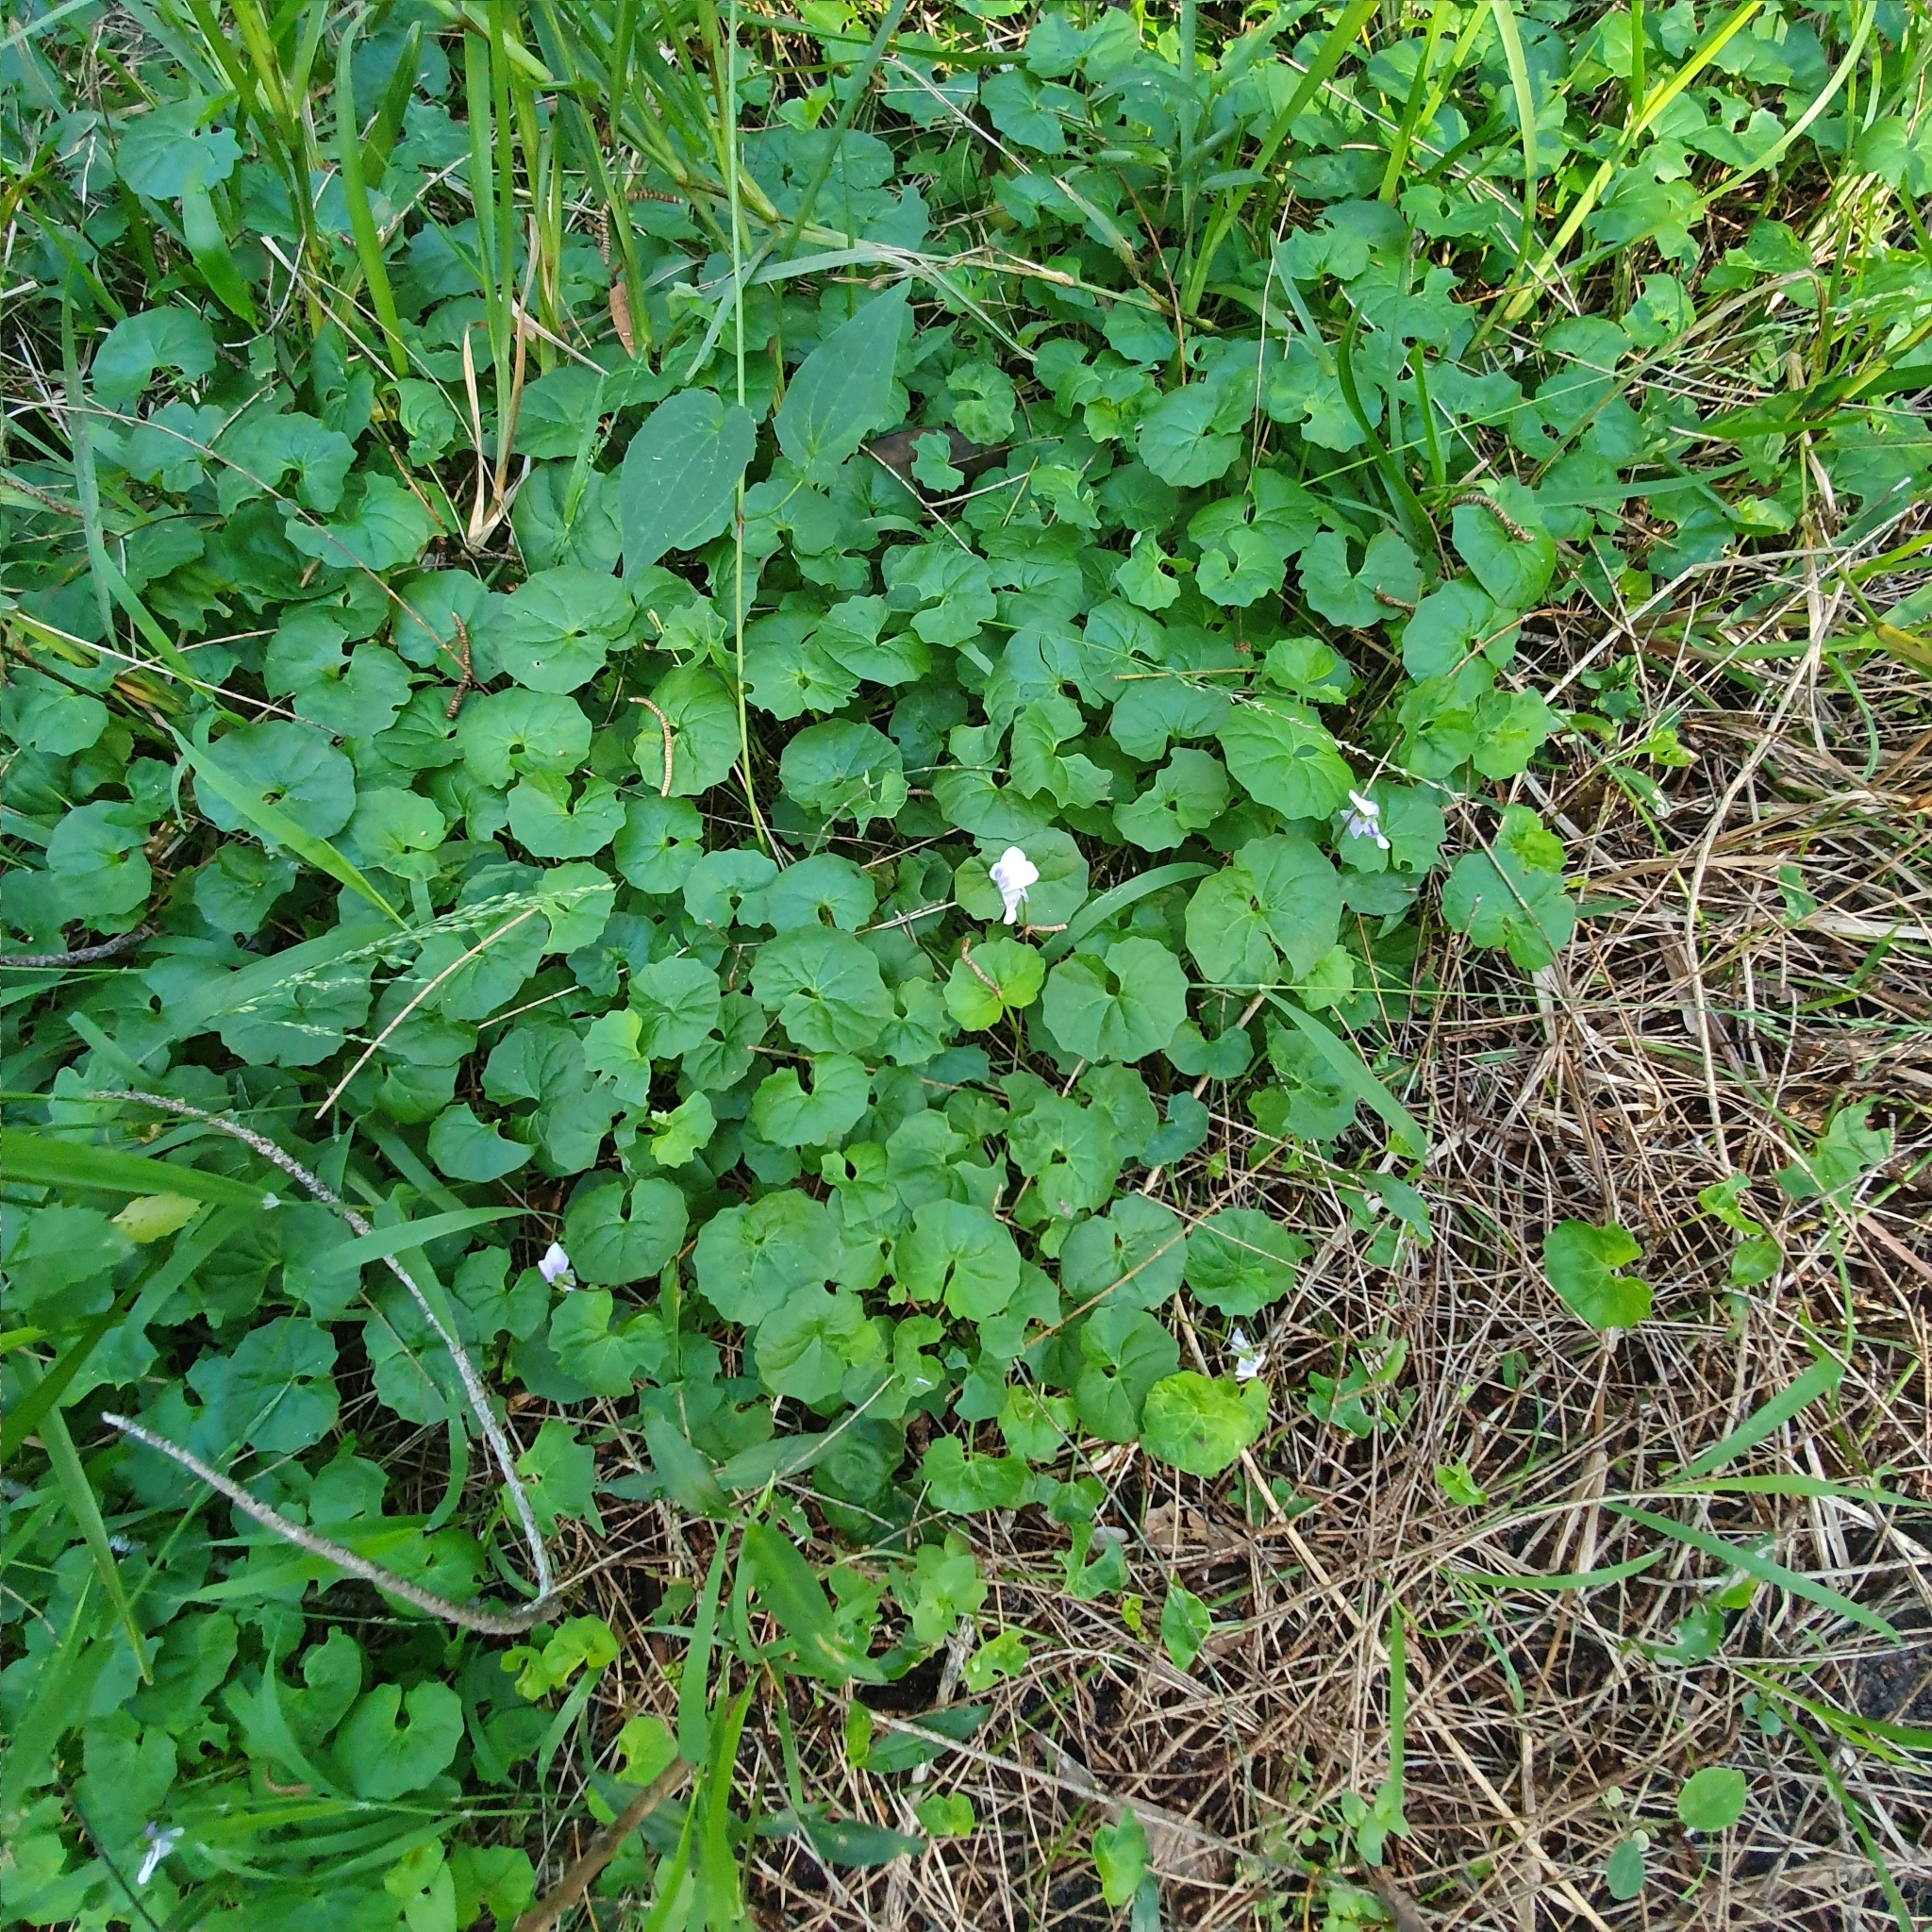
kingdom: Plantae
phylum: Tracheophyta
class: Magnoliopsida
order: Malpighiales
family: Violaceae
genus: Viola
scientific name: Viola banksii
